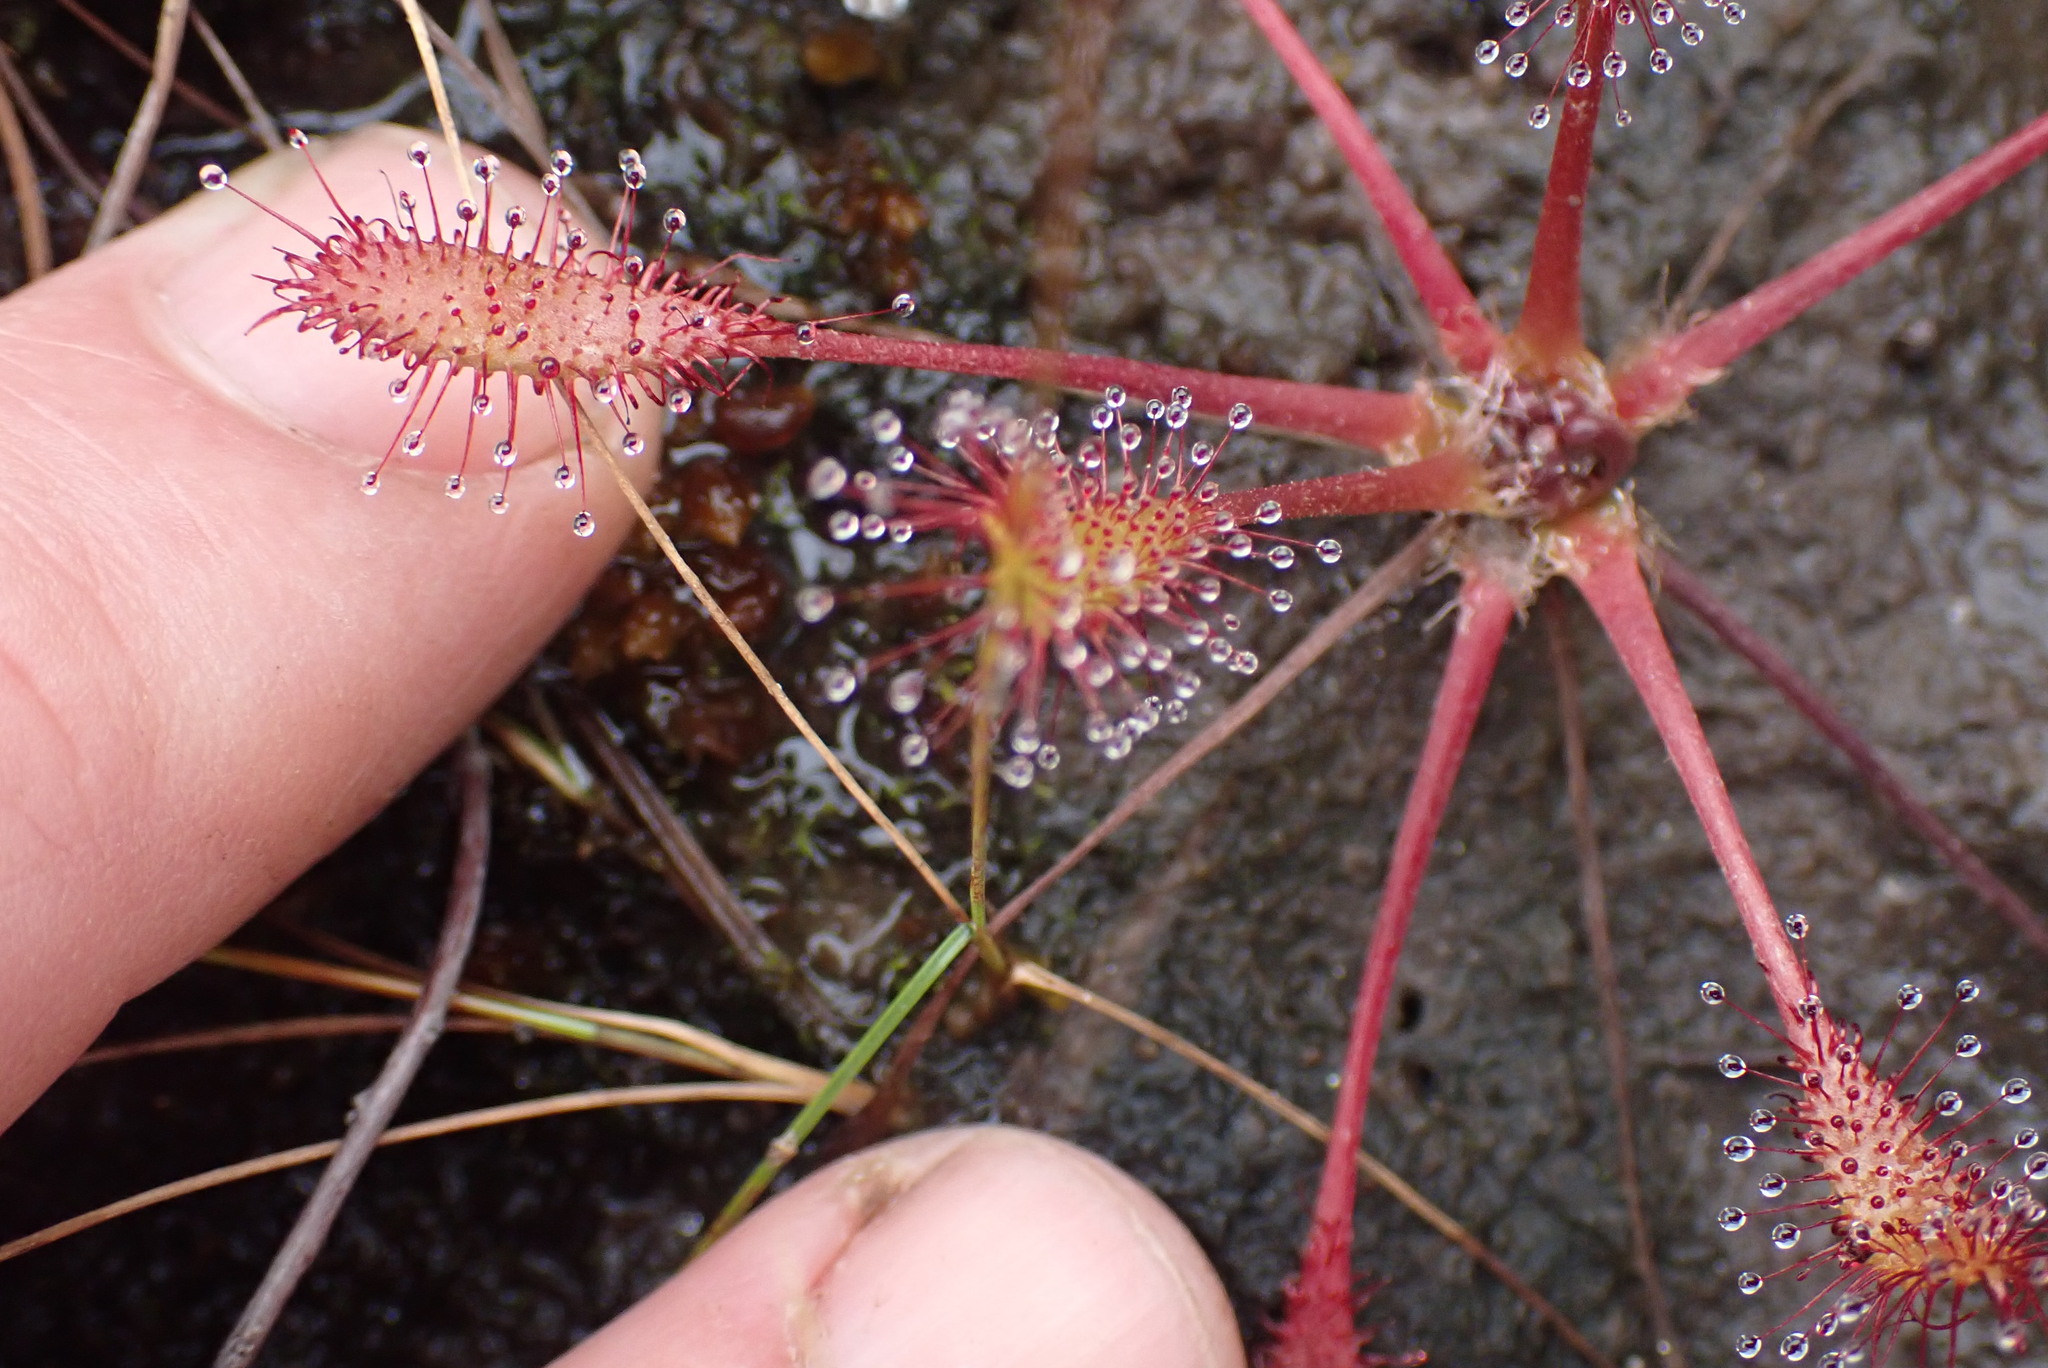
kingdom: Plantae
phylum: Tracheophyta
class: Magnoliopsida
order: Caryophyllales
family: Droseraceae
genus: Drosera
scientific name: Drosera anglica
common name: Great sundew
